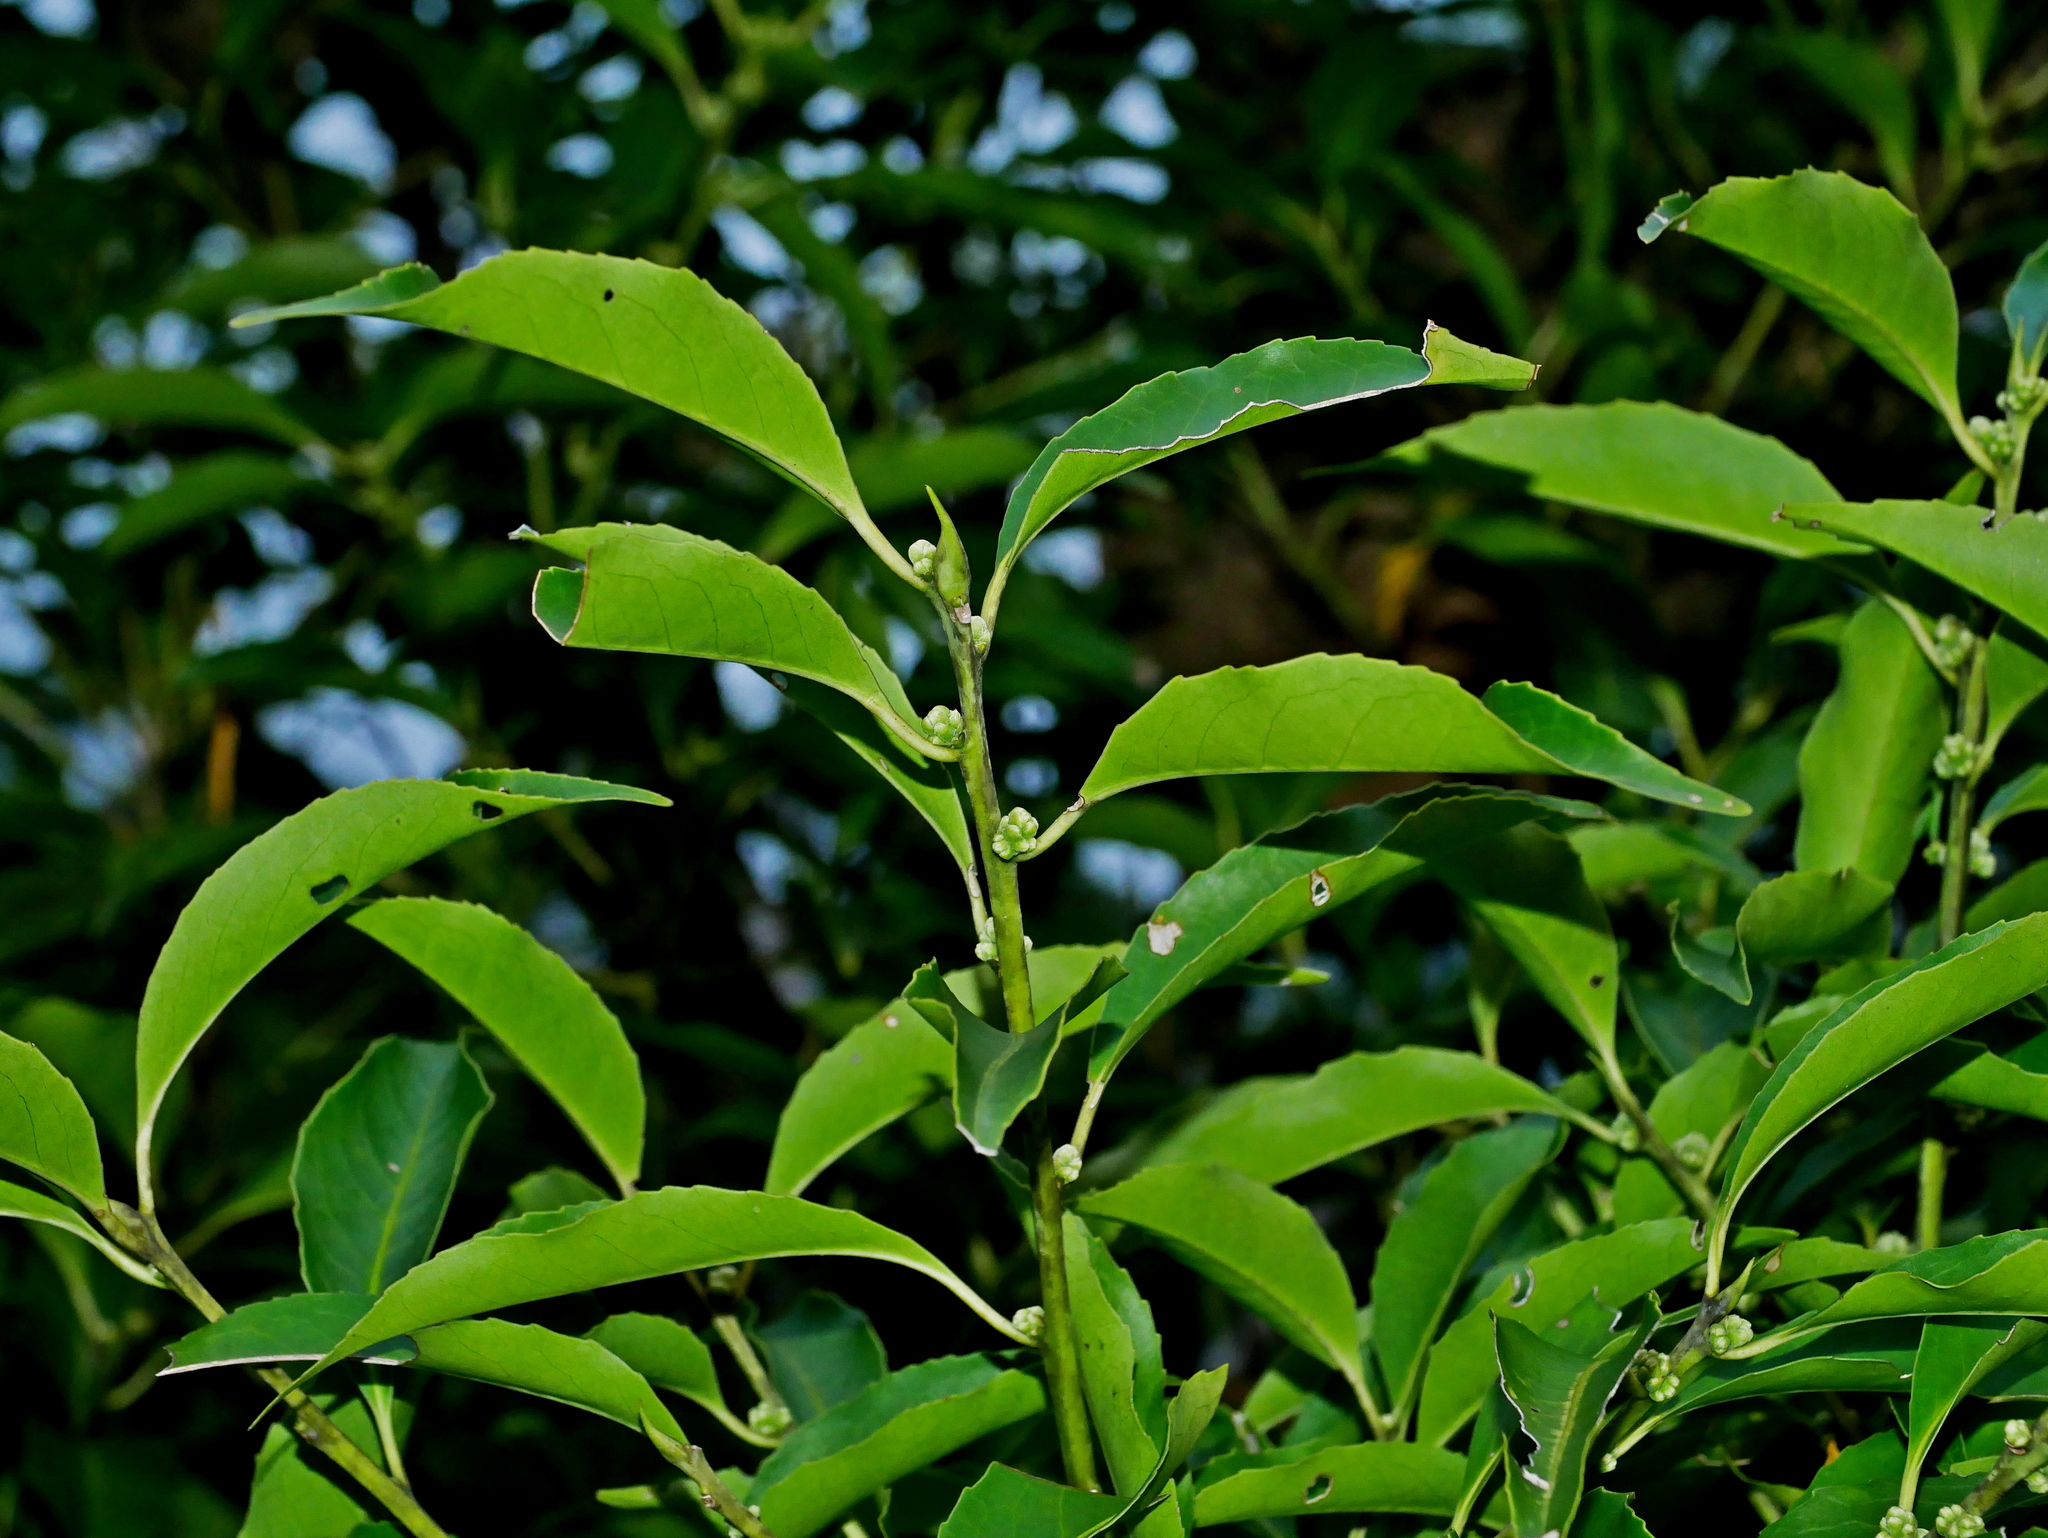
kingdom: Plantae
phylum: Tracheophyta
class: Magnoliopsida
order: Ericales
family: Symplocaceae
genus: Symplocos
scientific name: Symplocos setchuensis
